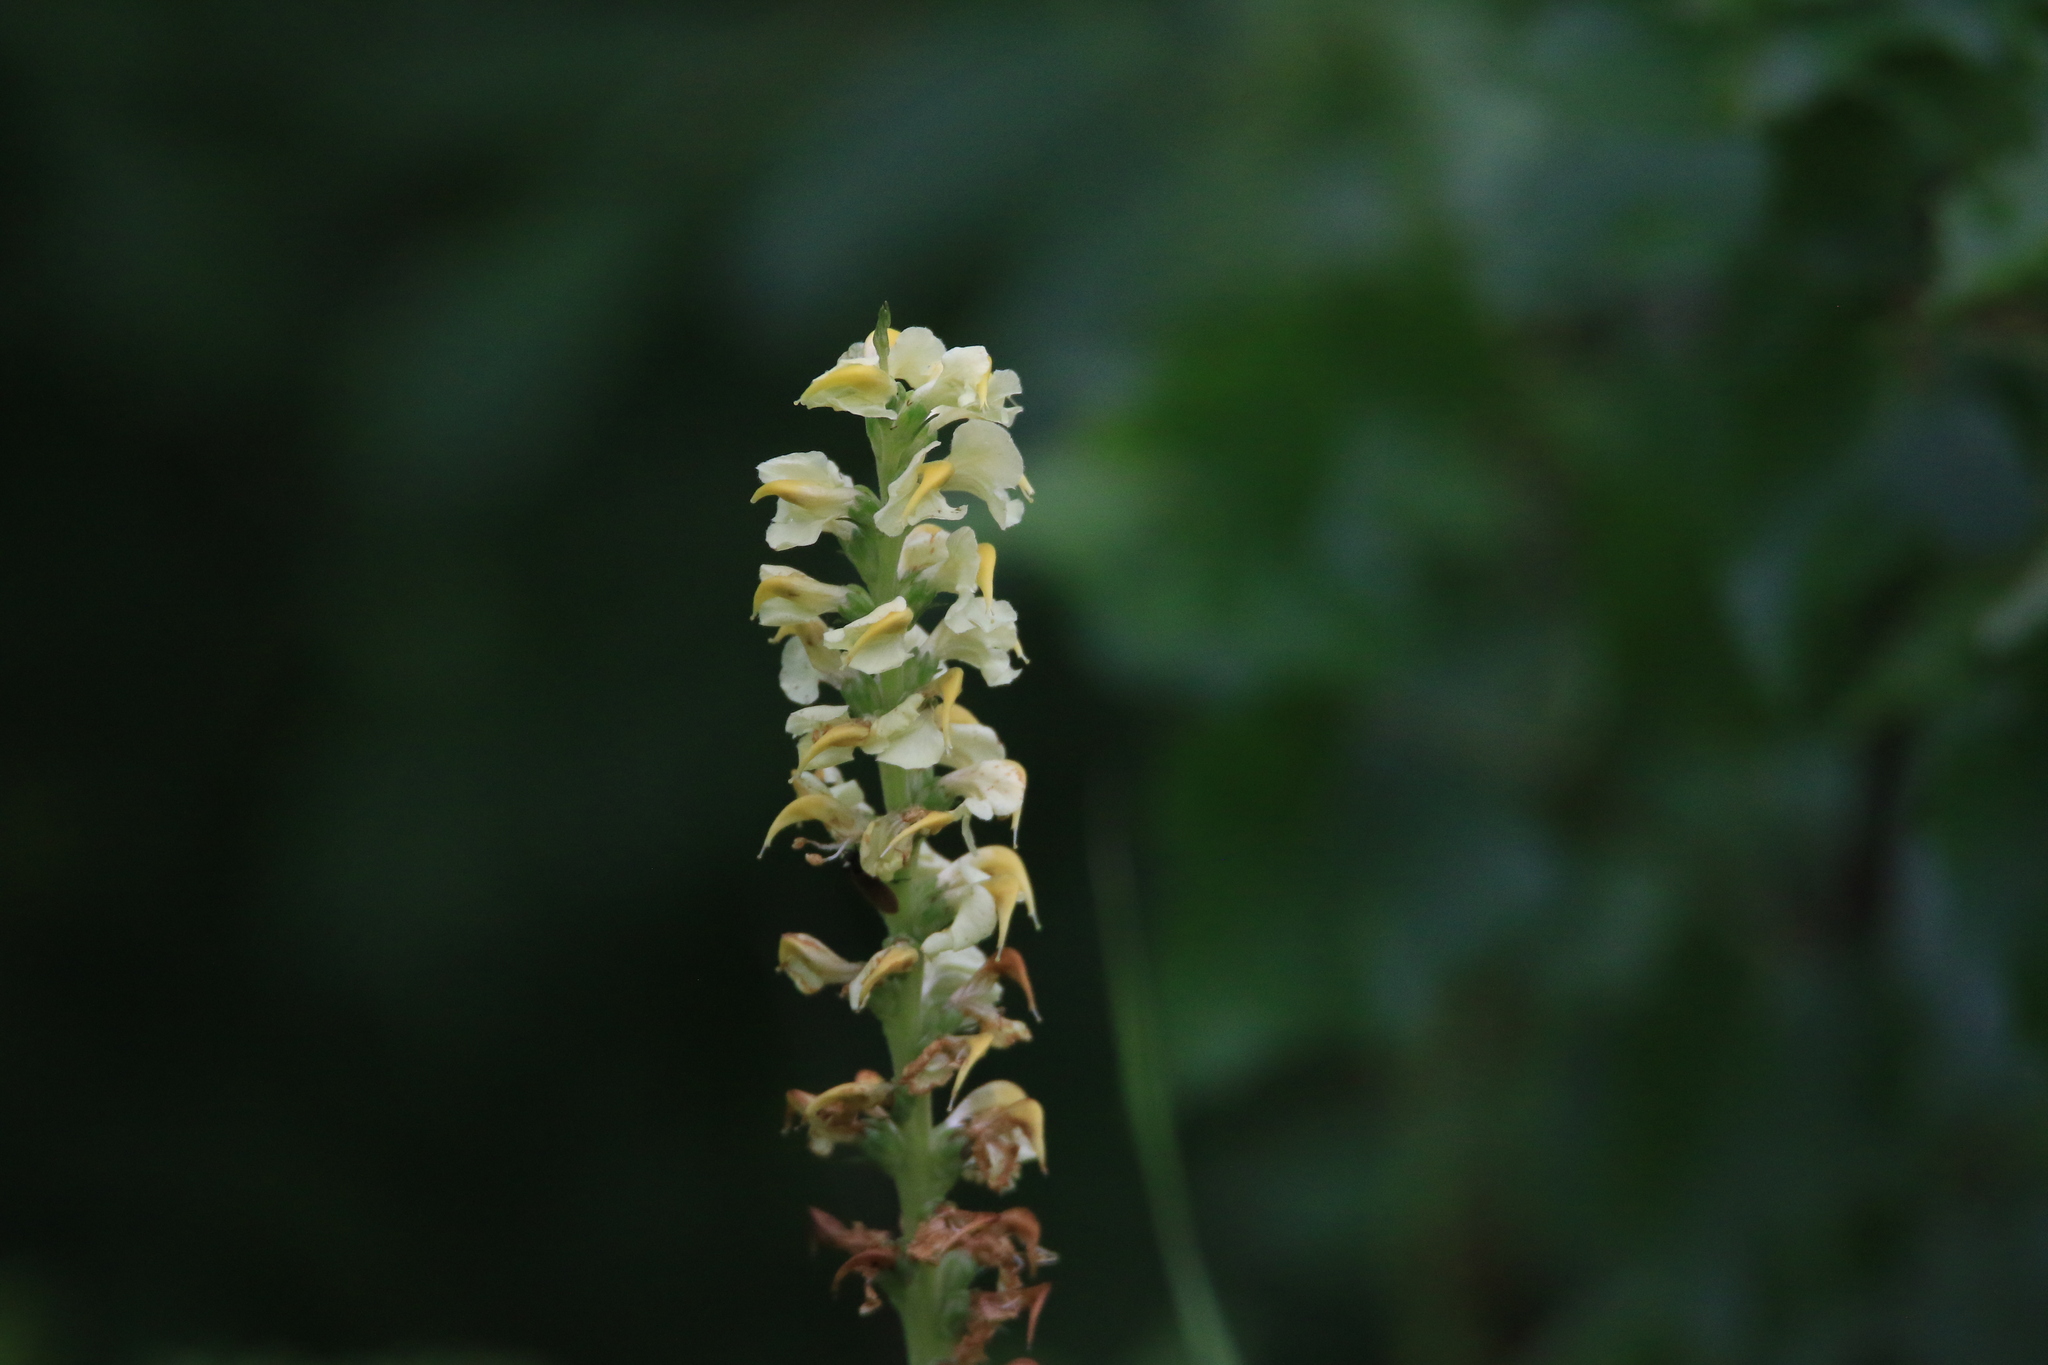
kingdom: Plantae
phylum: Tracheophyta
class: Magnoliopsida
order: Lamiales
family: Orobanchaceae
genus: Pedicularis
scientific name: Pedicularis incarnata
